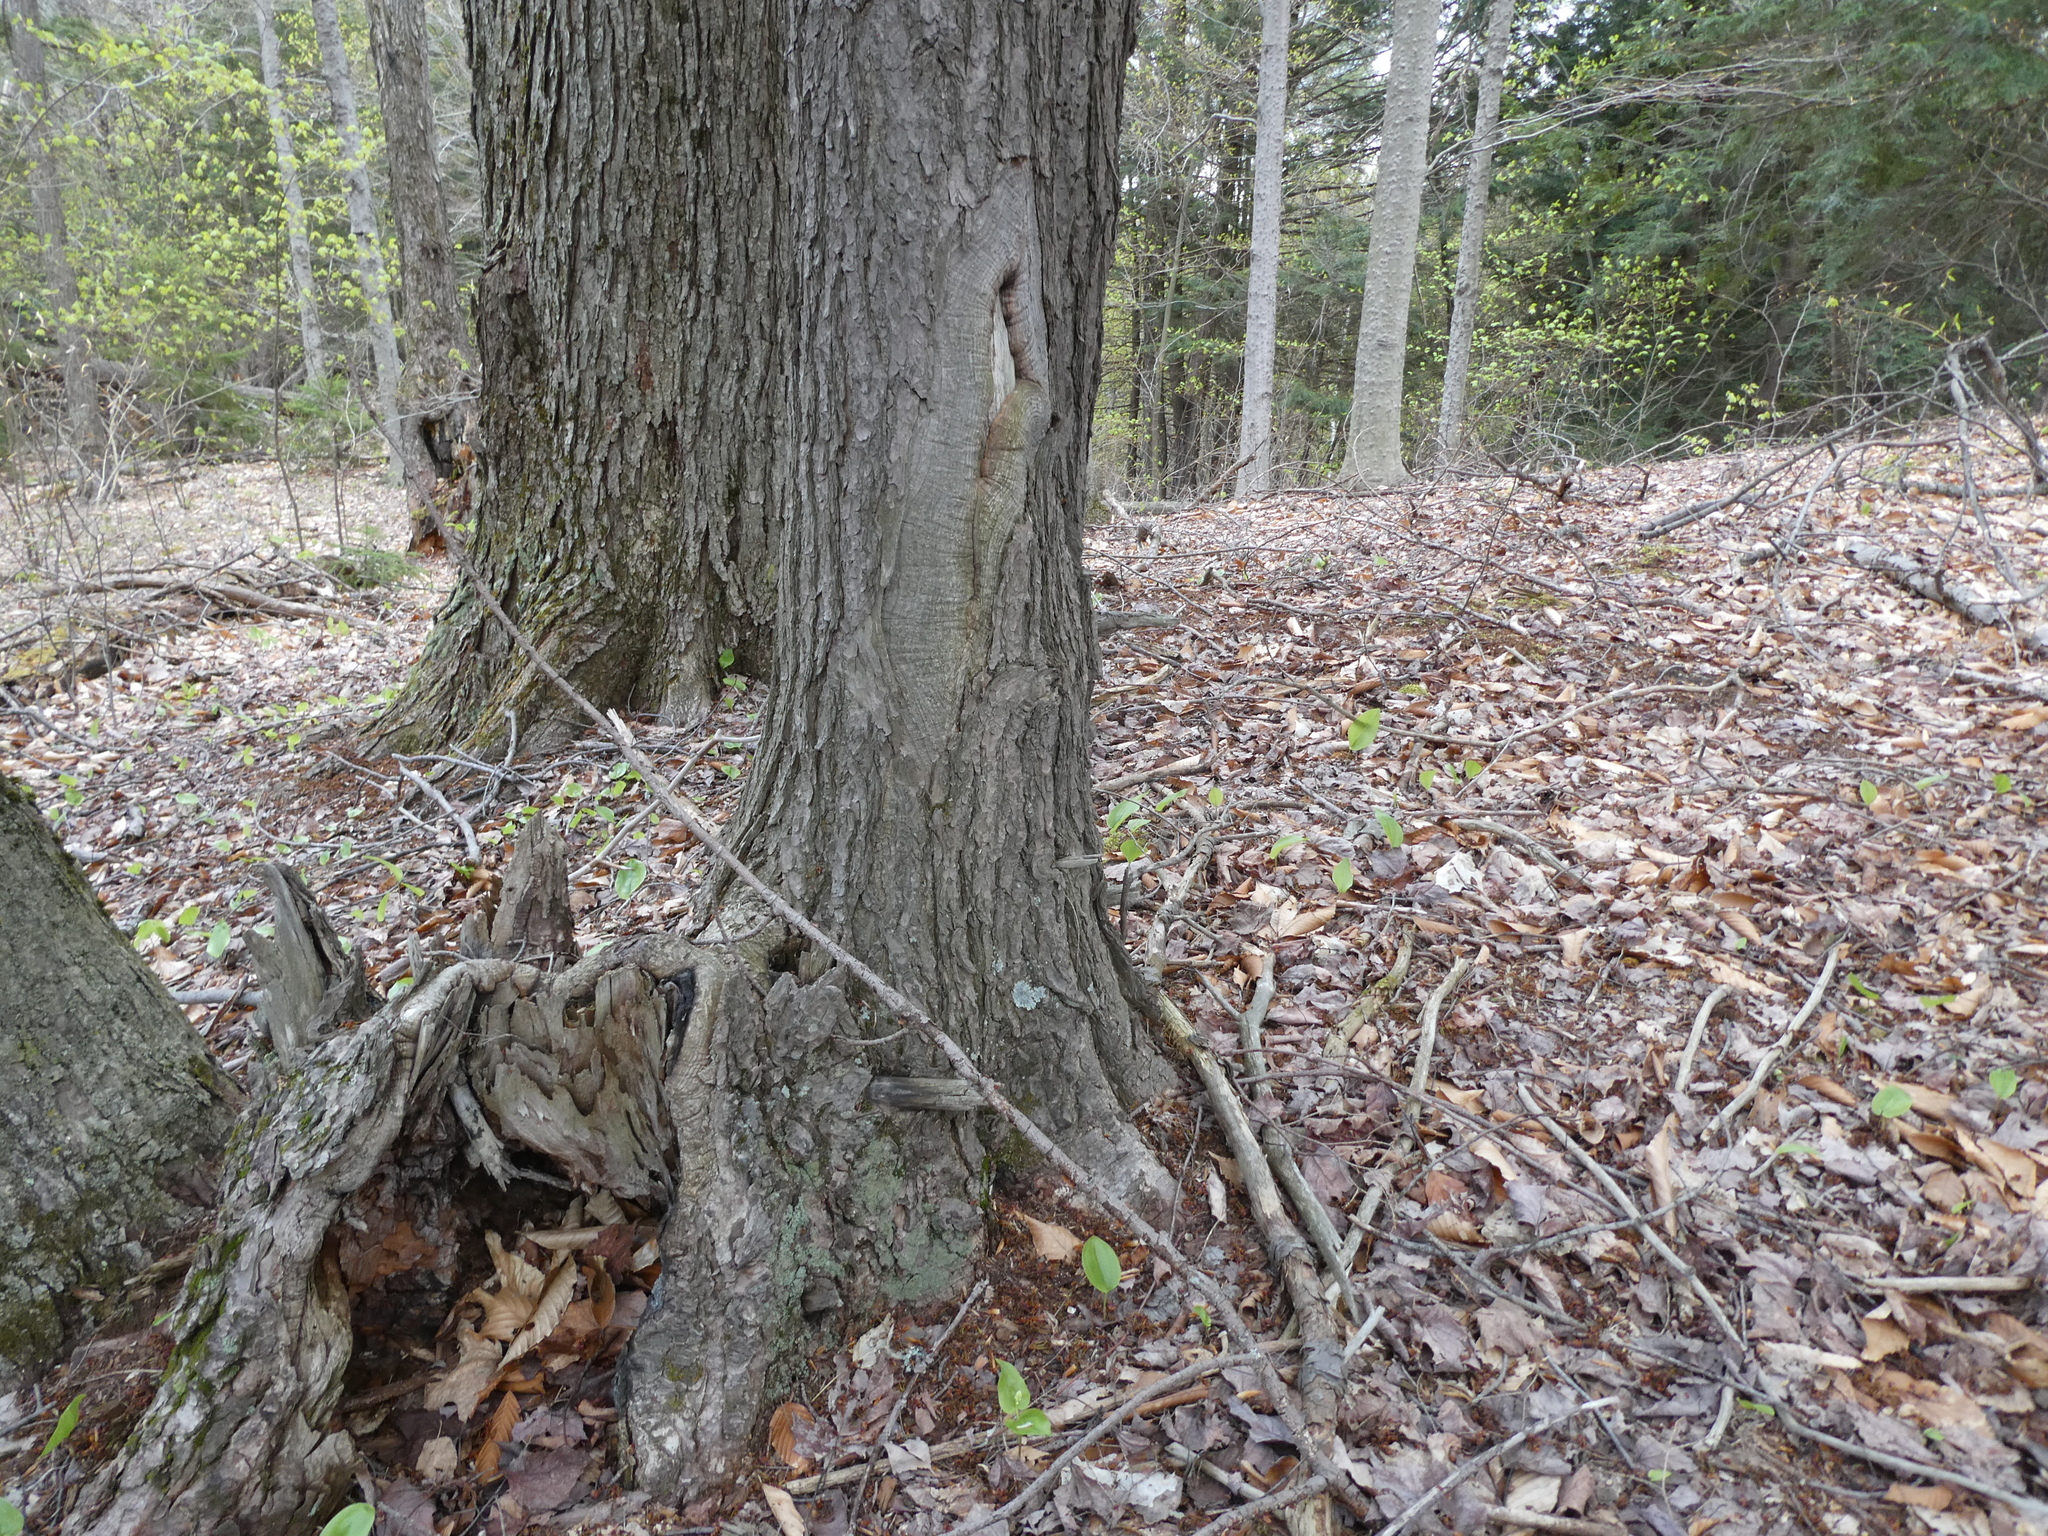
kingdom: Animalia
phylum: Chordata
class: Aves
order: Piciformes
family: Picidae
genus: Sphyrapicus
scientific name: Sphyrapicus varius
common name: Yellow-bellied sapsucker
